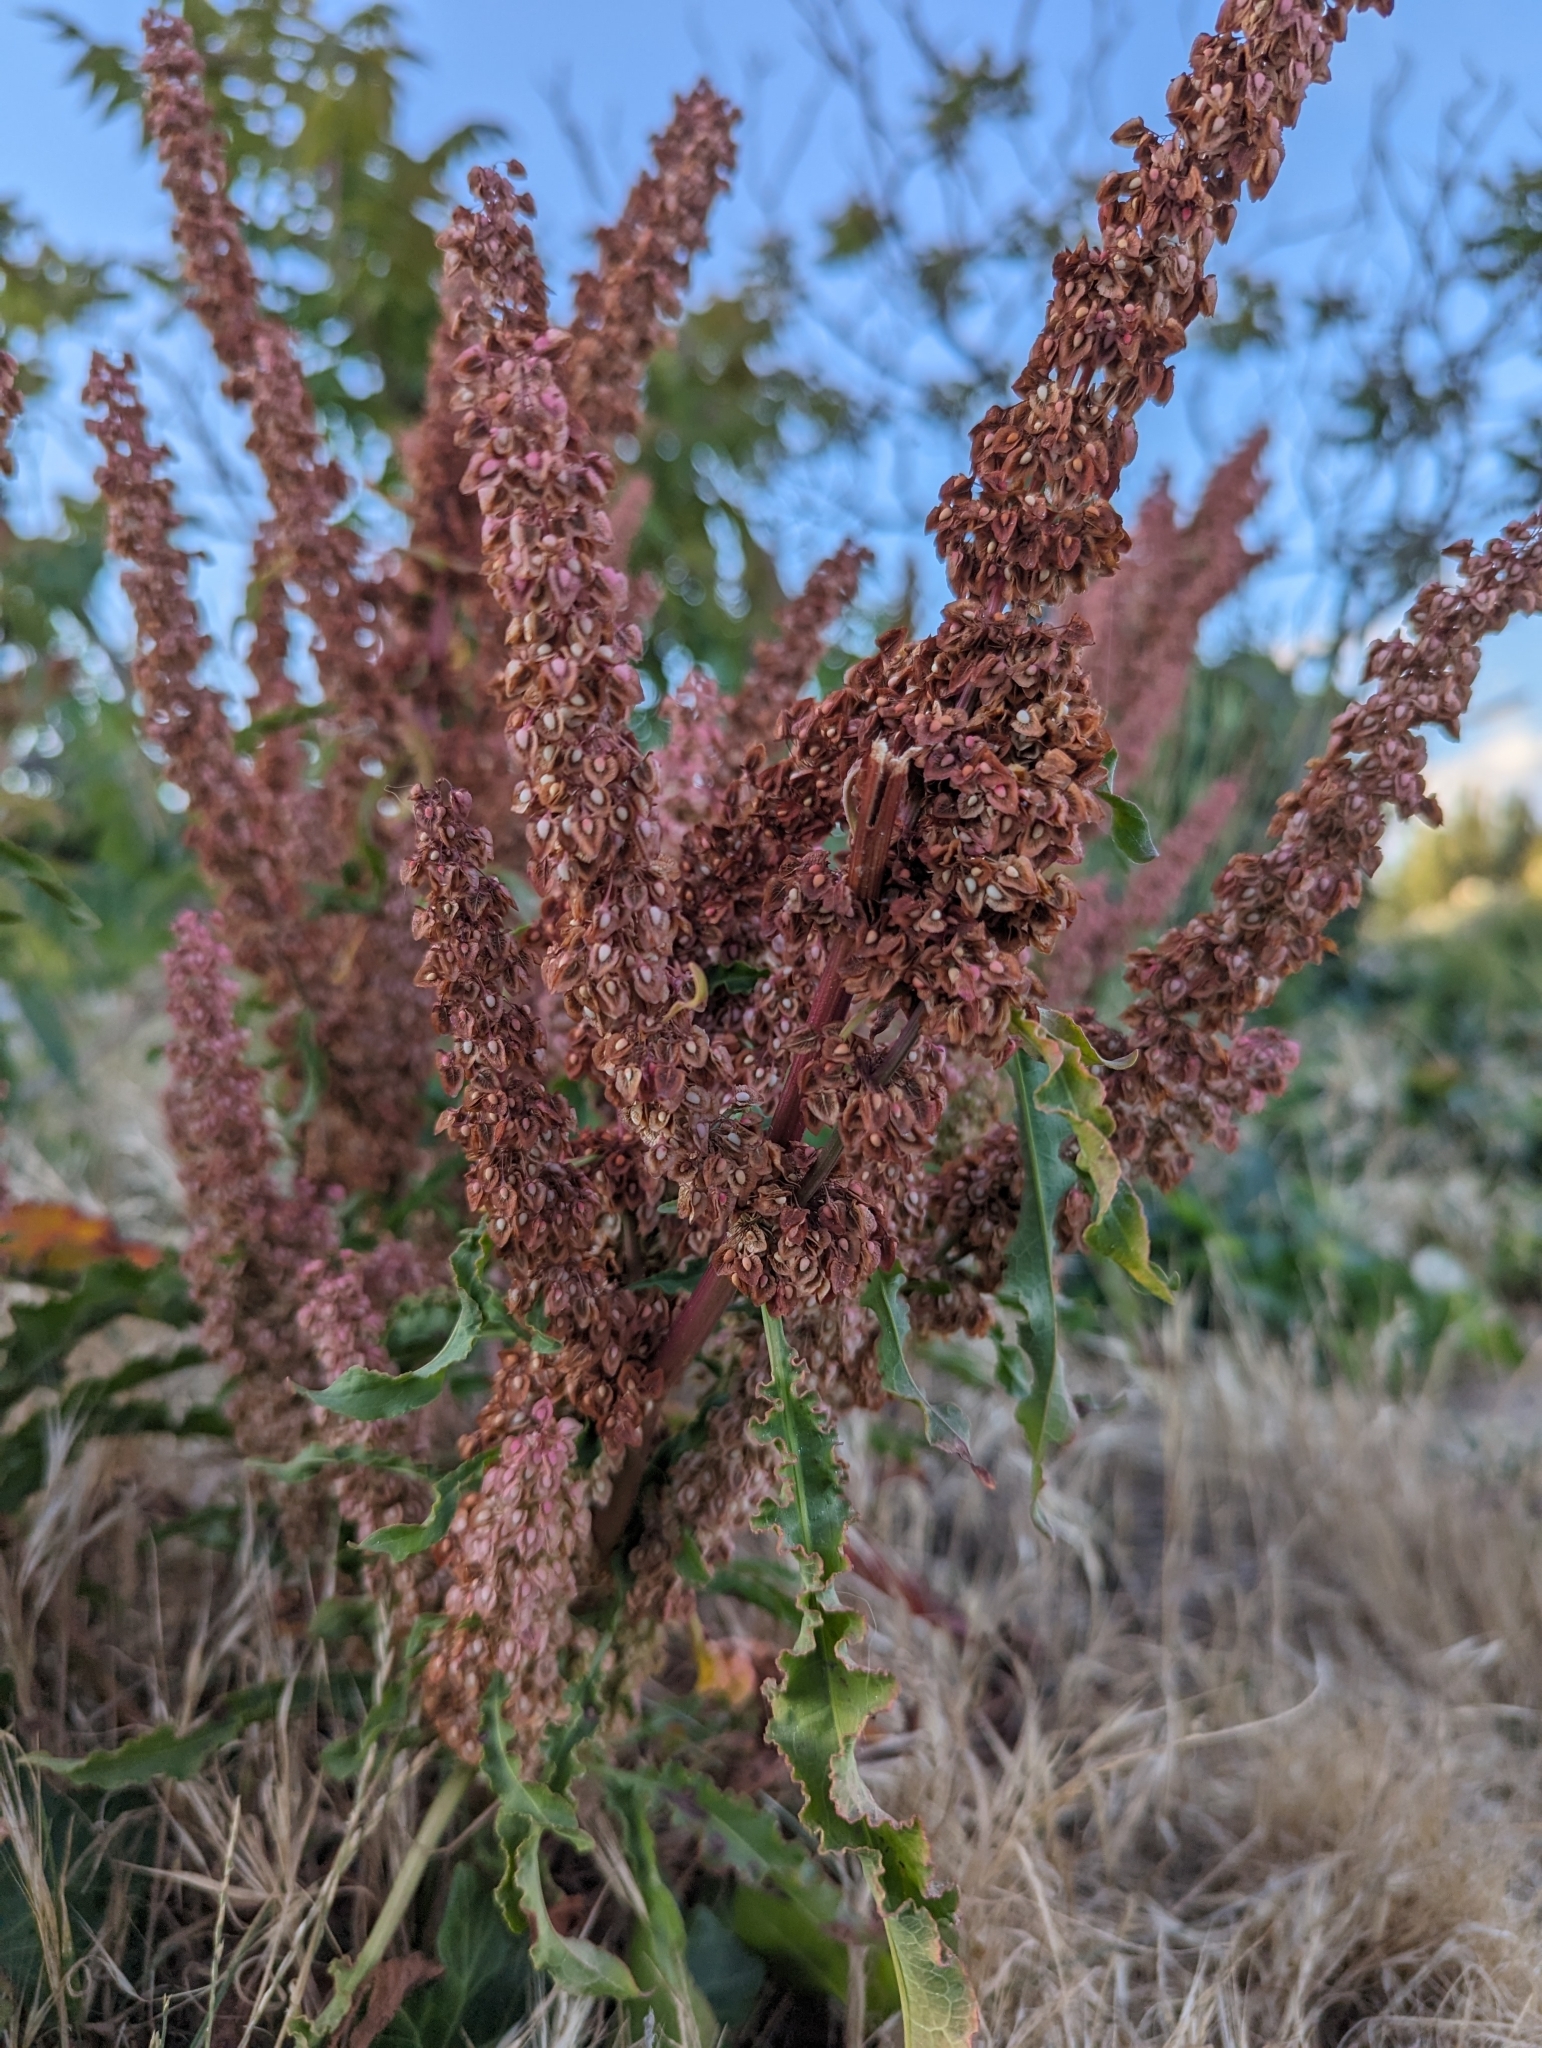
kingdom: Plantae
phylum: Tracheophyta
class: Magnoliopsida
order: Caryophyllales
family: Polygonaceae
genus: Rumex
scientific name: Rumex crispus
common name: Curled dock
